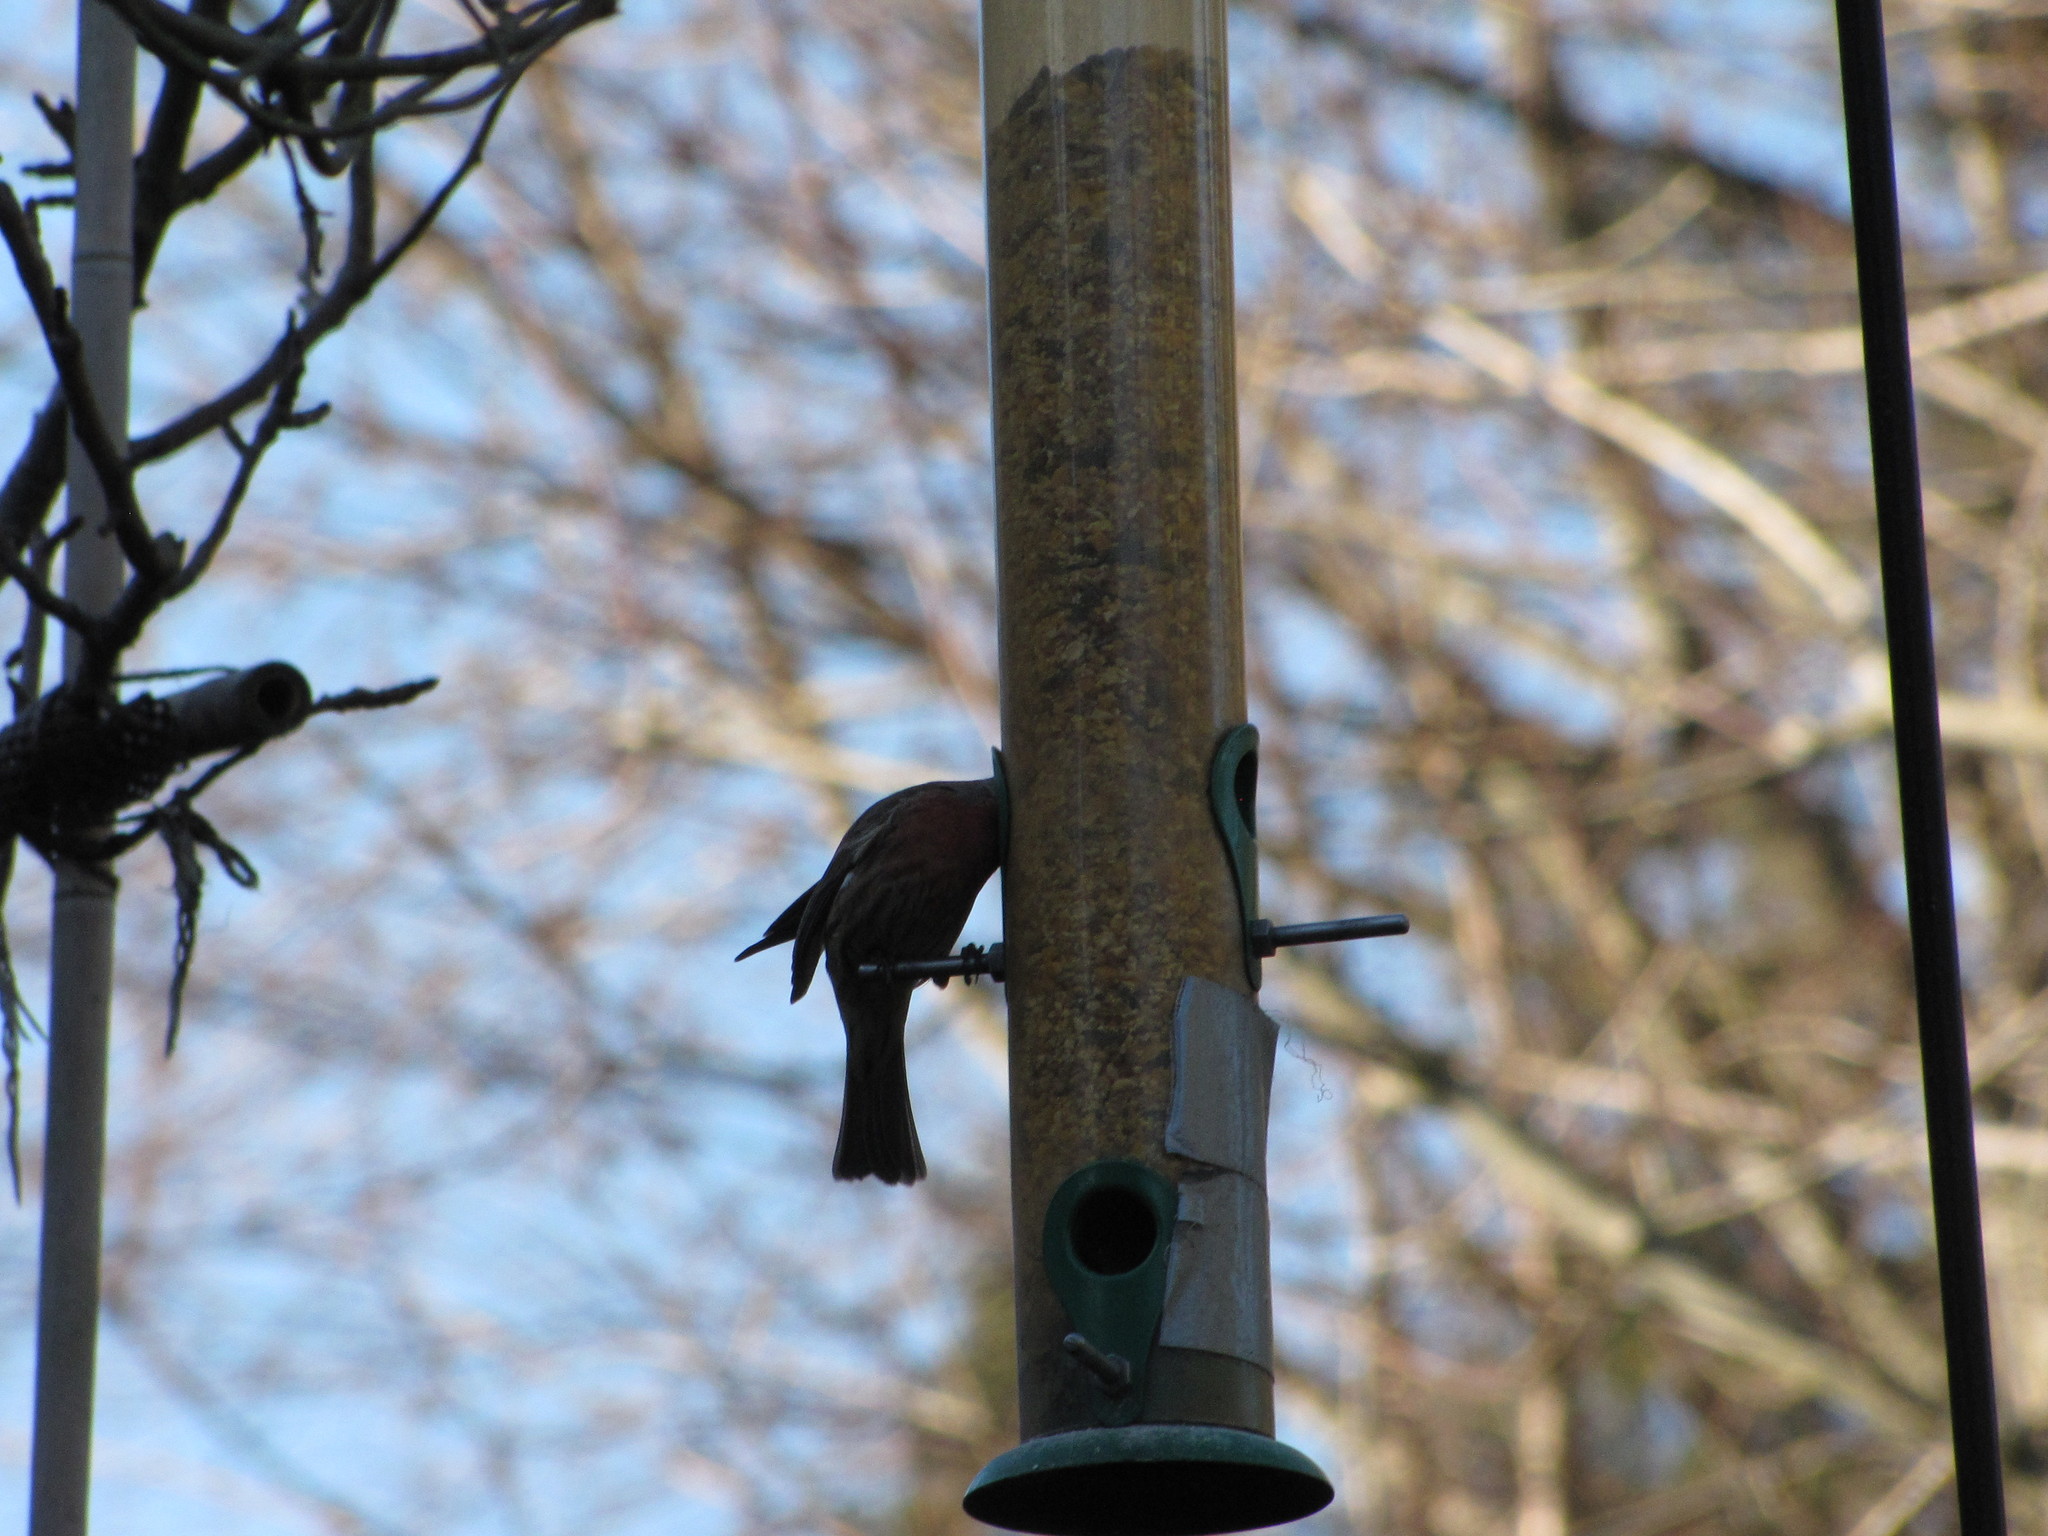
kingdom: Animalia
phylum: Chordata
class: Aves
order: Passeriformes
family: Fringillidae
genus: Haemorhous
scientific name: Haemorhous mexicanus
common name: House finch
